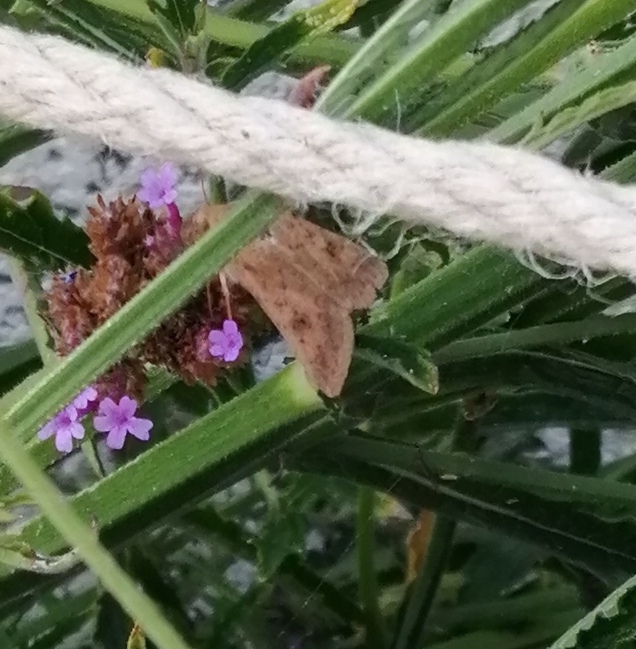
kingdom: Animalia
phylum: Arthropoda
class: Insecta
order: Lepidoptera
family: Noctuidae
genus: Helicoverpa
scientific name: Helicoverpa armigera
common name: Cotton bollworm
